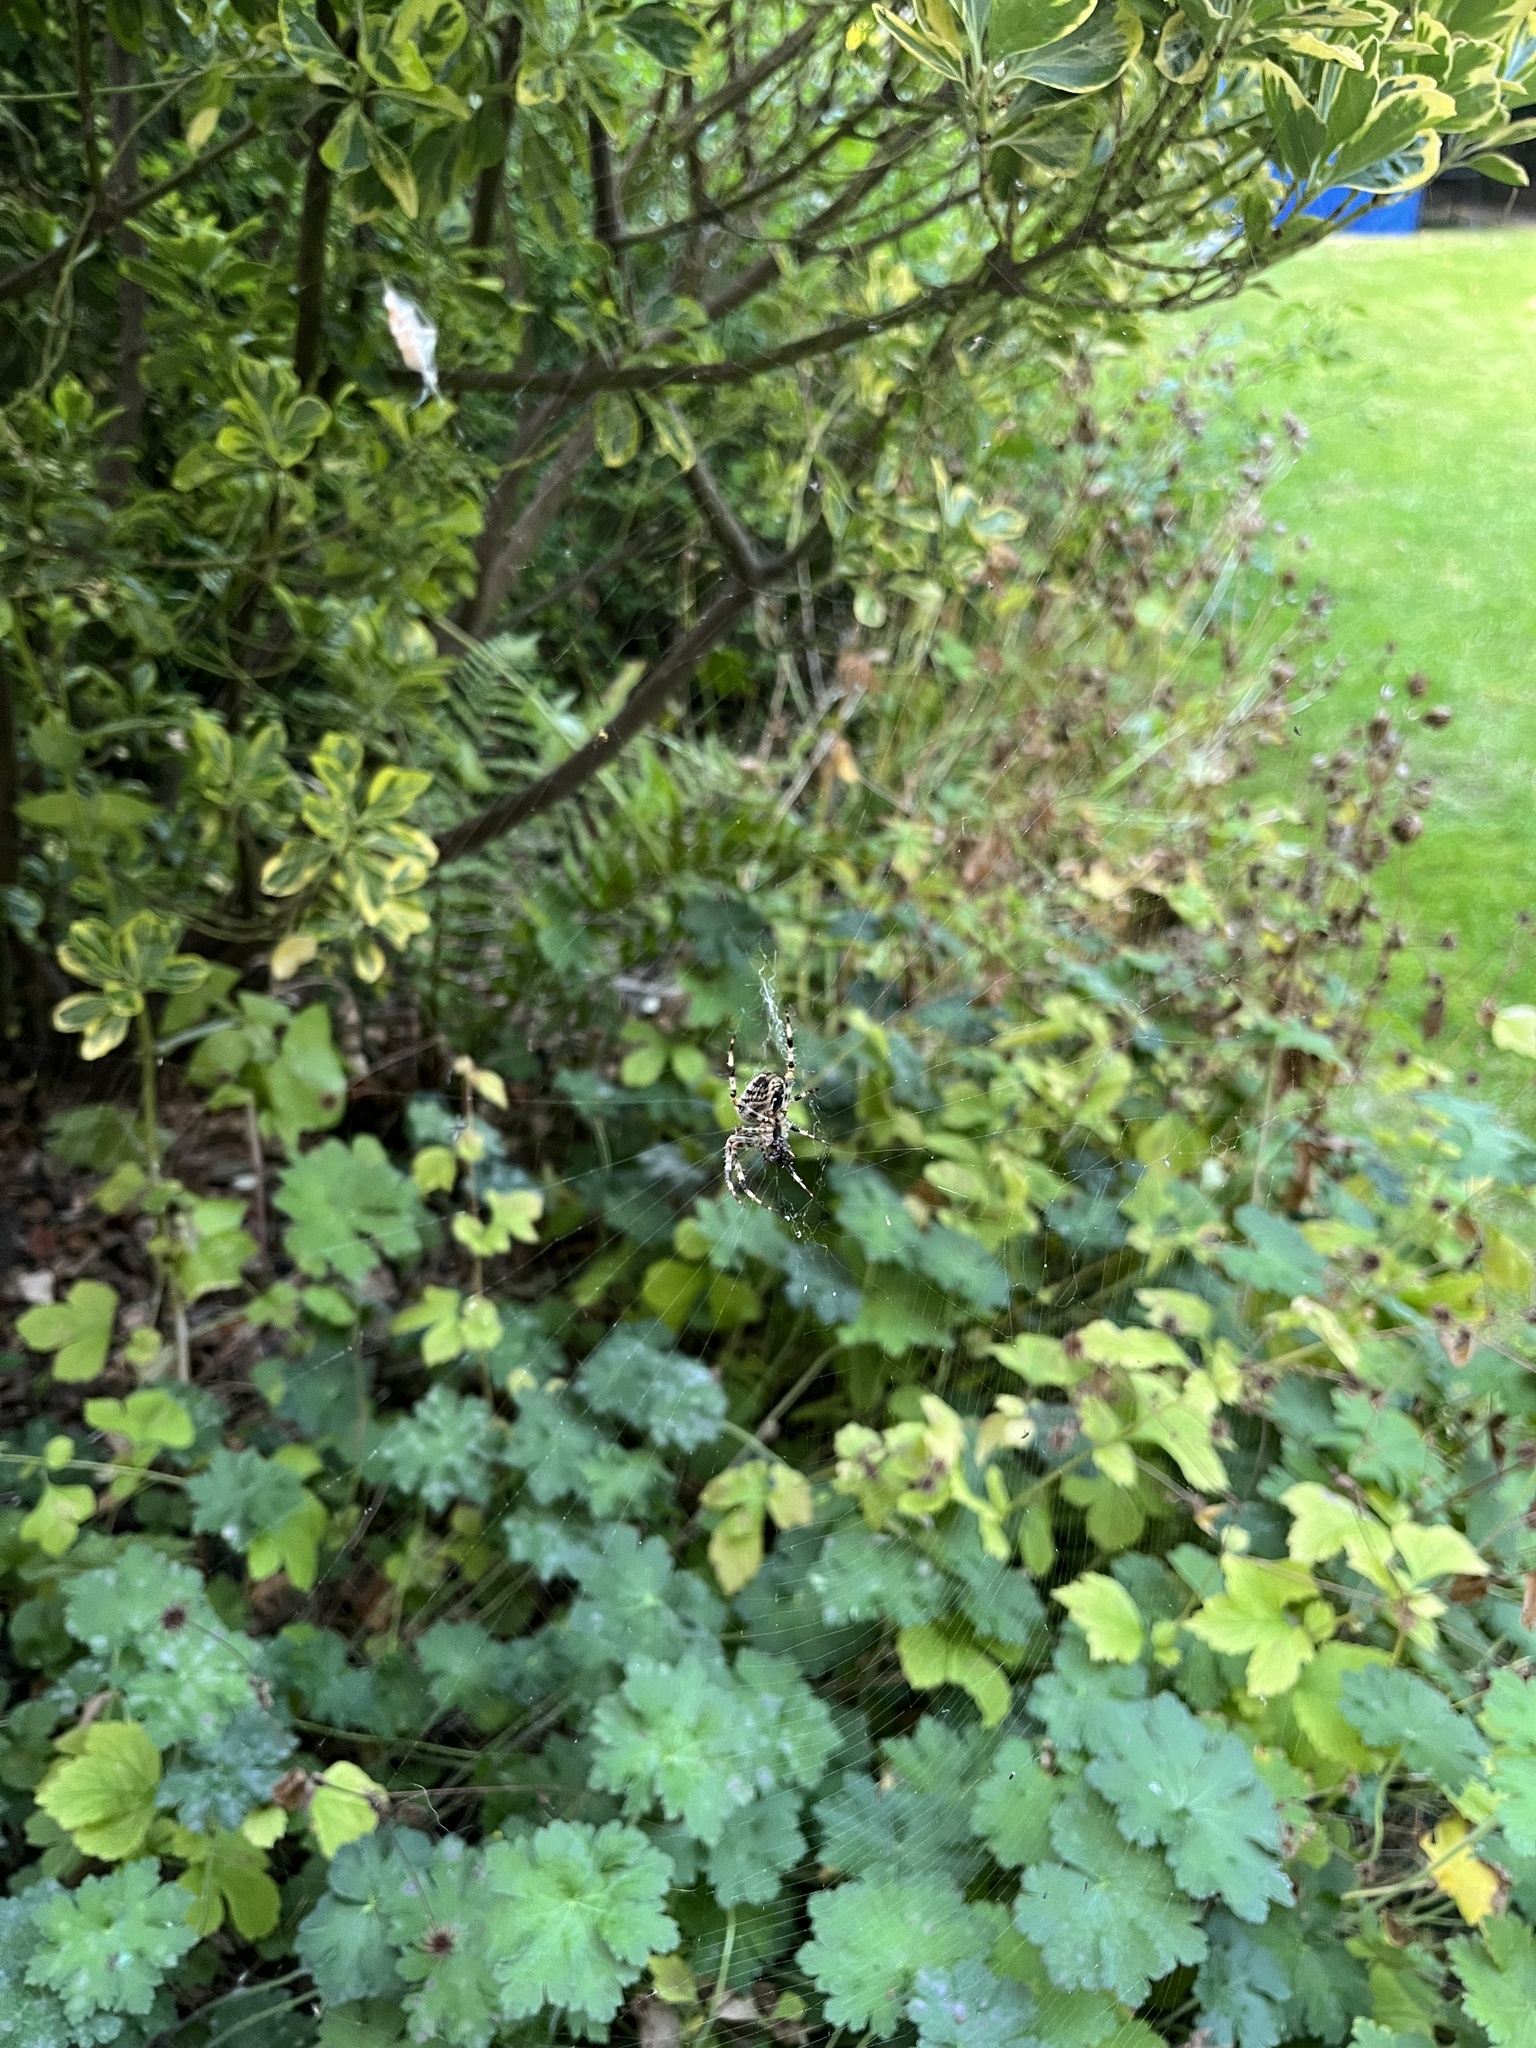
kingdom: Animalia
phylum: Arthropoda
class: Arachnida
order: Araneae
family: Araneidae
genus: Araneus
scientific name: Araneus diadematus
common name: Cross orbweaver
